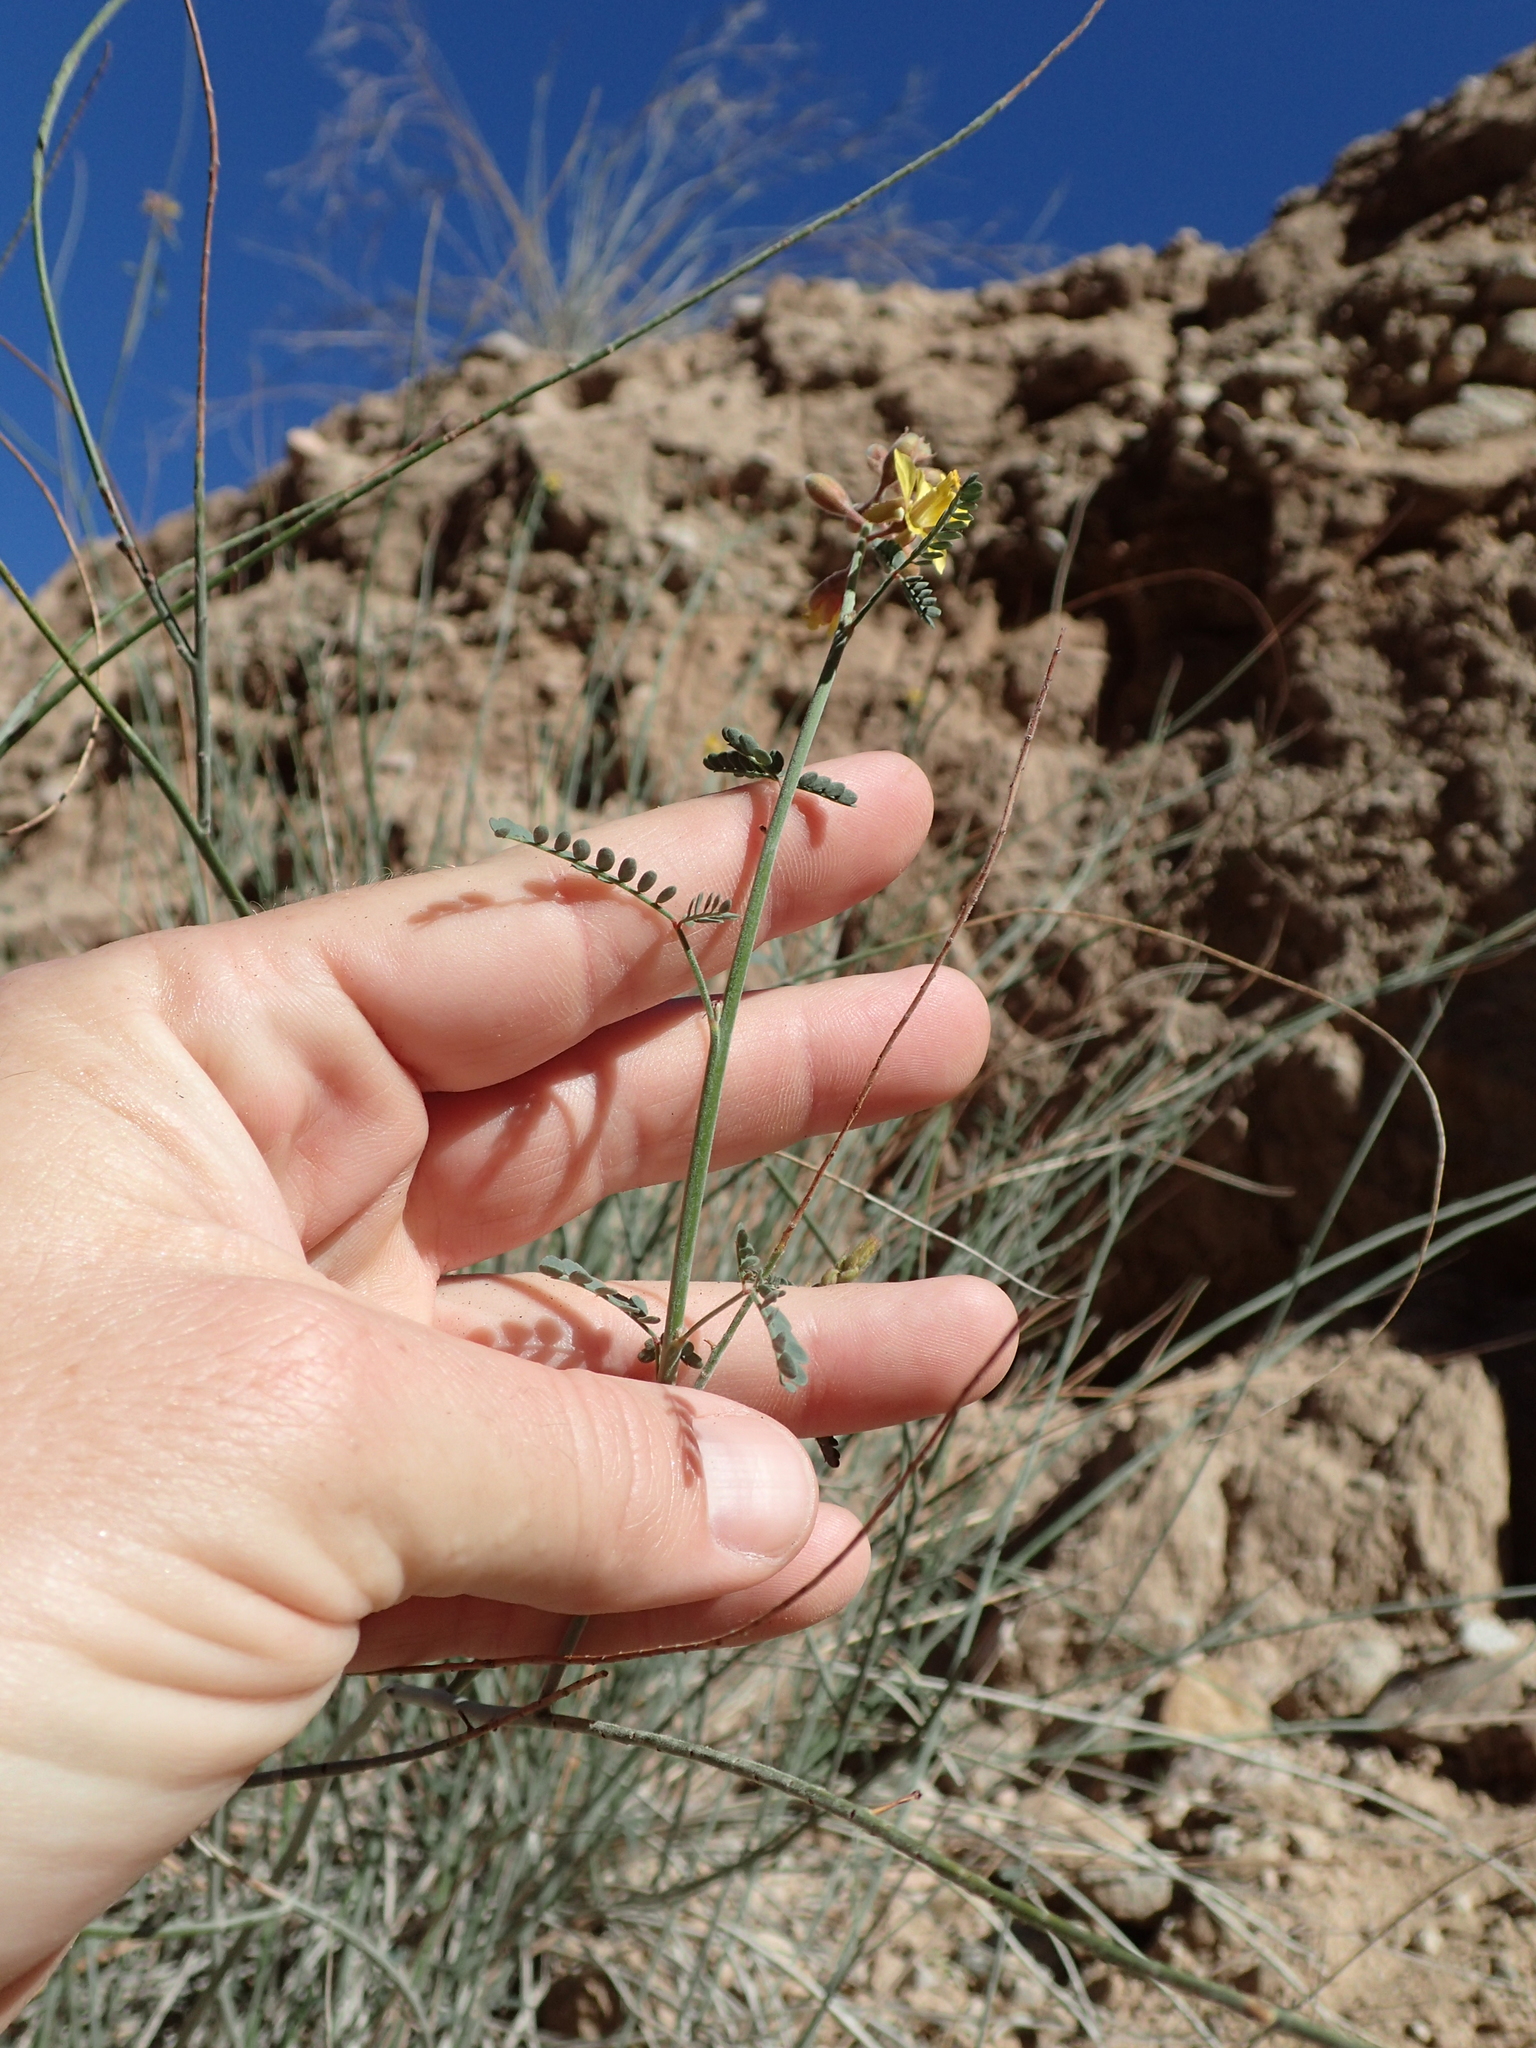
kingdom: Plantae
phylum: Tracheophyta
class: Magnoliopsida
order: Fabales
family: Fabaceae
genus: Hoffmannseggia
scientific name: Hoffmannseggia microphylla
